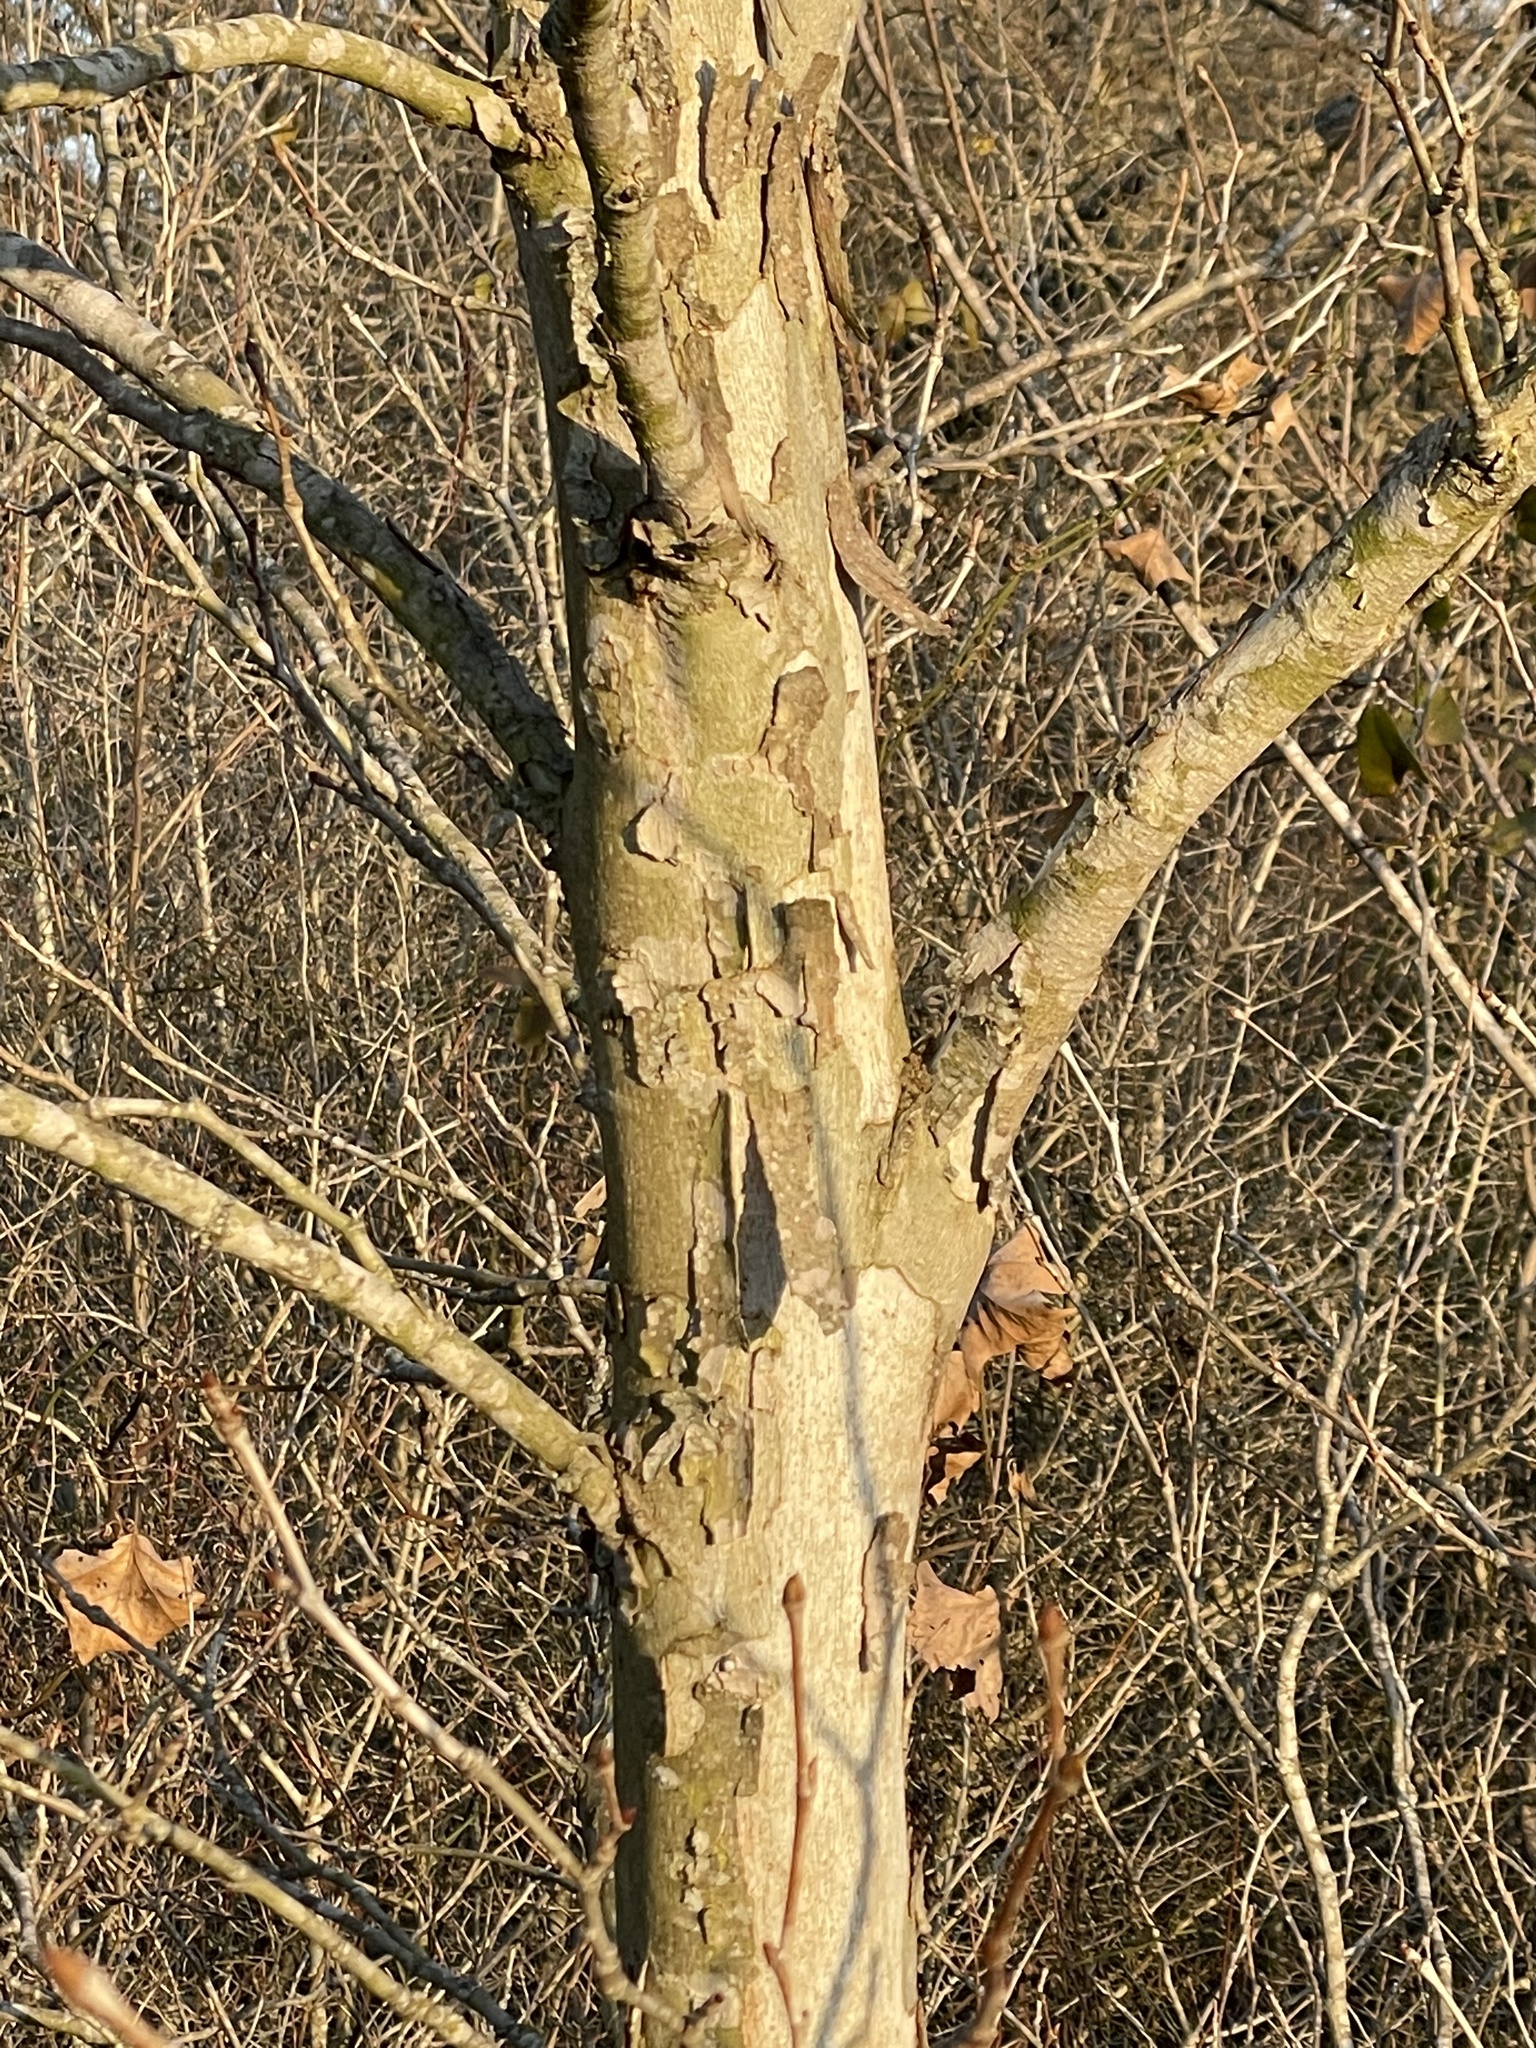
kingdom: Plantae
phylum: Tracheophyta
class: Magnoliopsida
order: Proteales
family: Platanaceae
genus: Platanus
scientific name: Platanus occidentalis
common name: American sycamore
